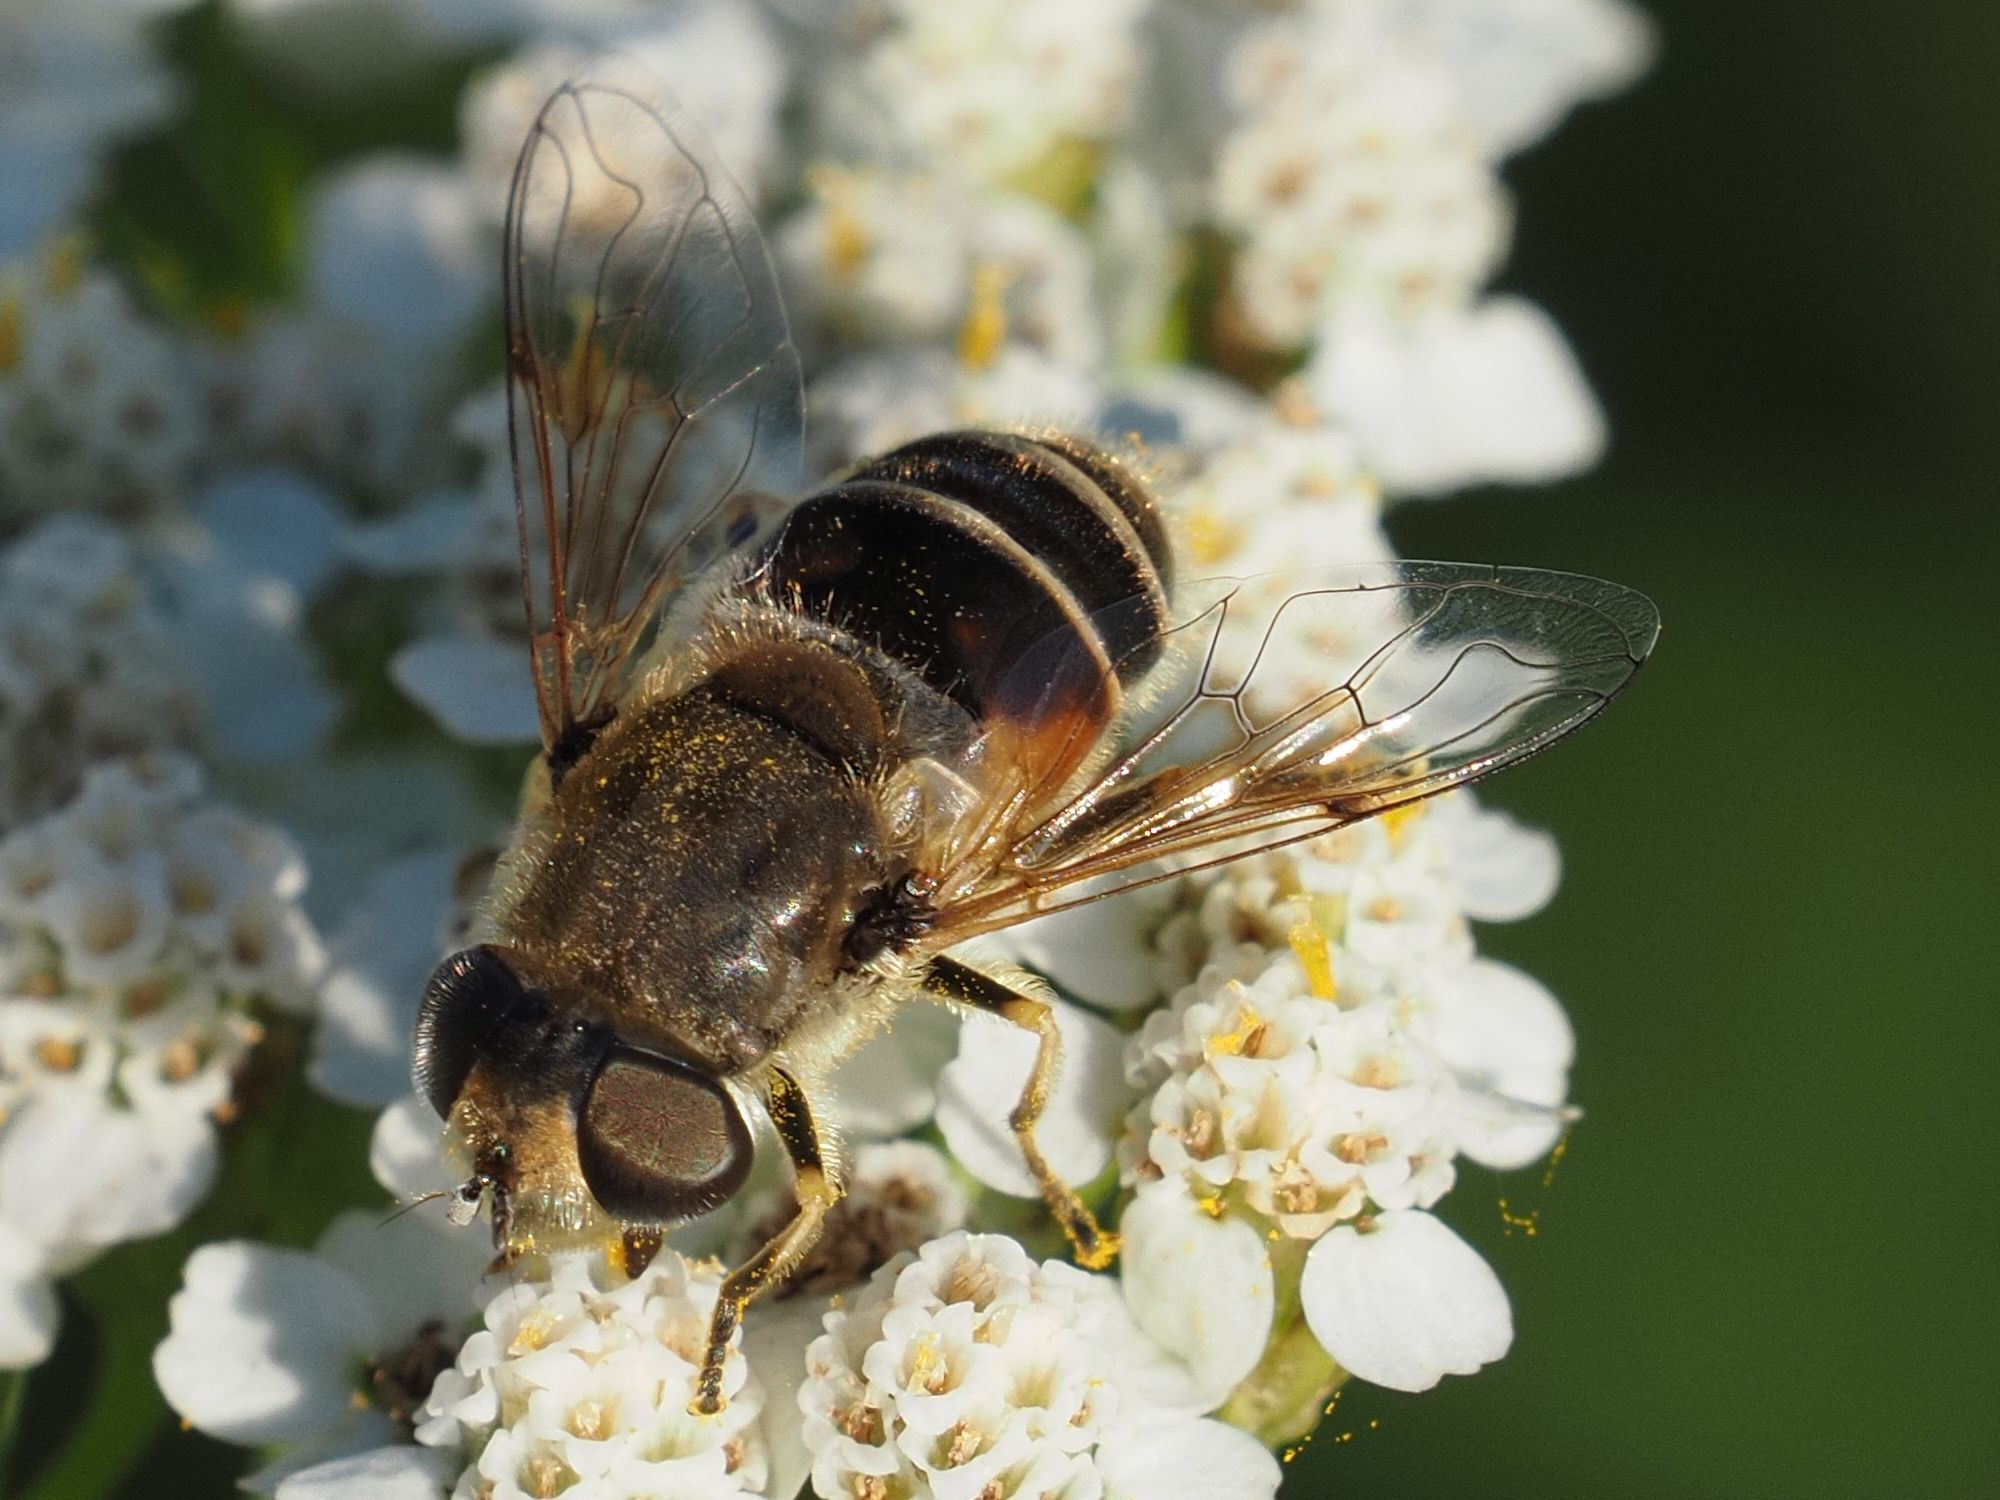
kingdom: Animalia
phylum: Arthropoda
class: Insecta
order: Diptera
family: Syrphidae
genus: Eristalis
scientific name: Eristalis arbustorum
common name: Hover fly
